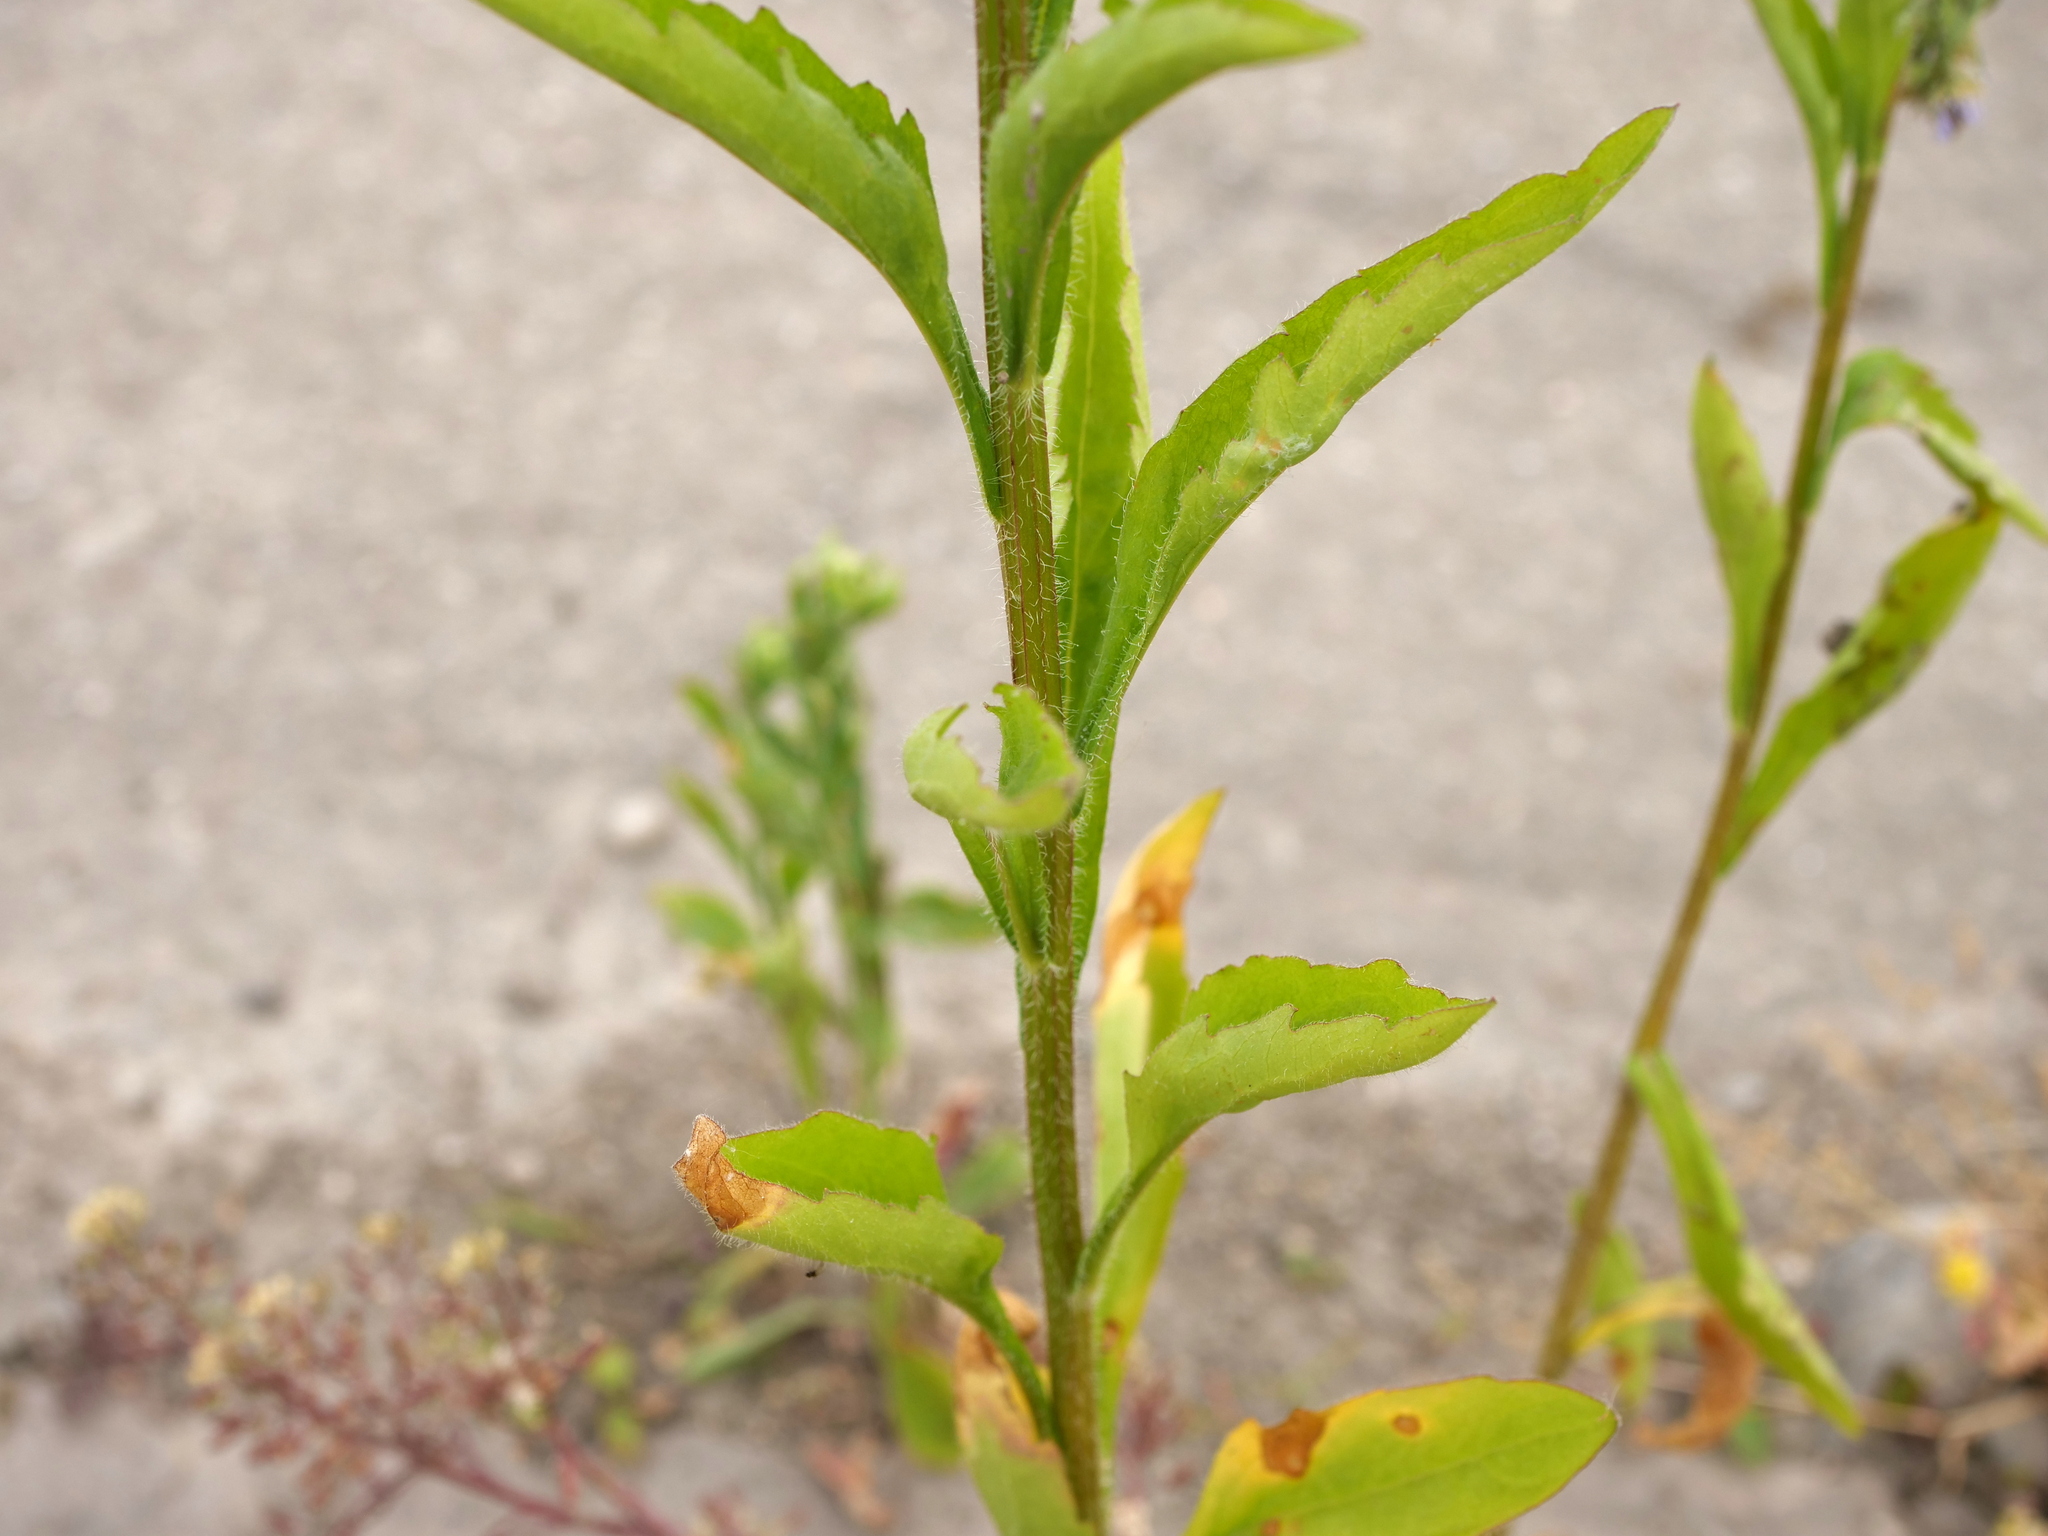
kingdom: Plantae
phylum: Tracheophyta
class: Magnoliopsida
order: Asterales
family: Asteraceae
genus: Erigeron
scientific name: Erigeron annuus
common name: Tall fleabane
